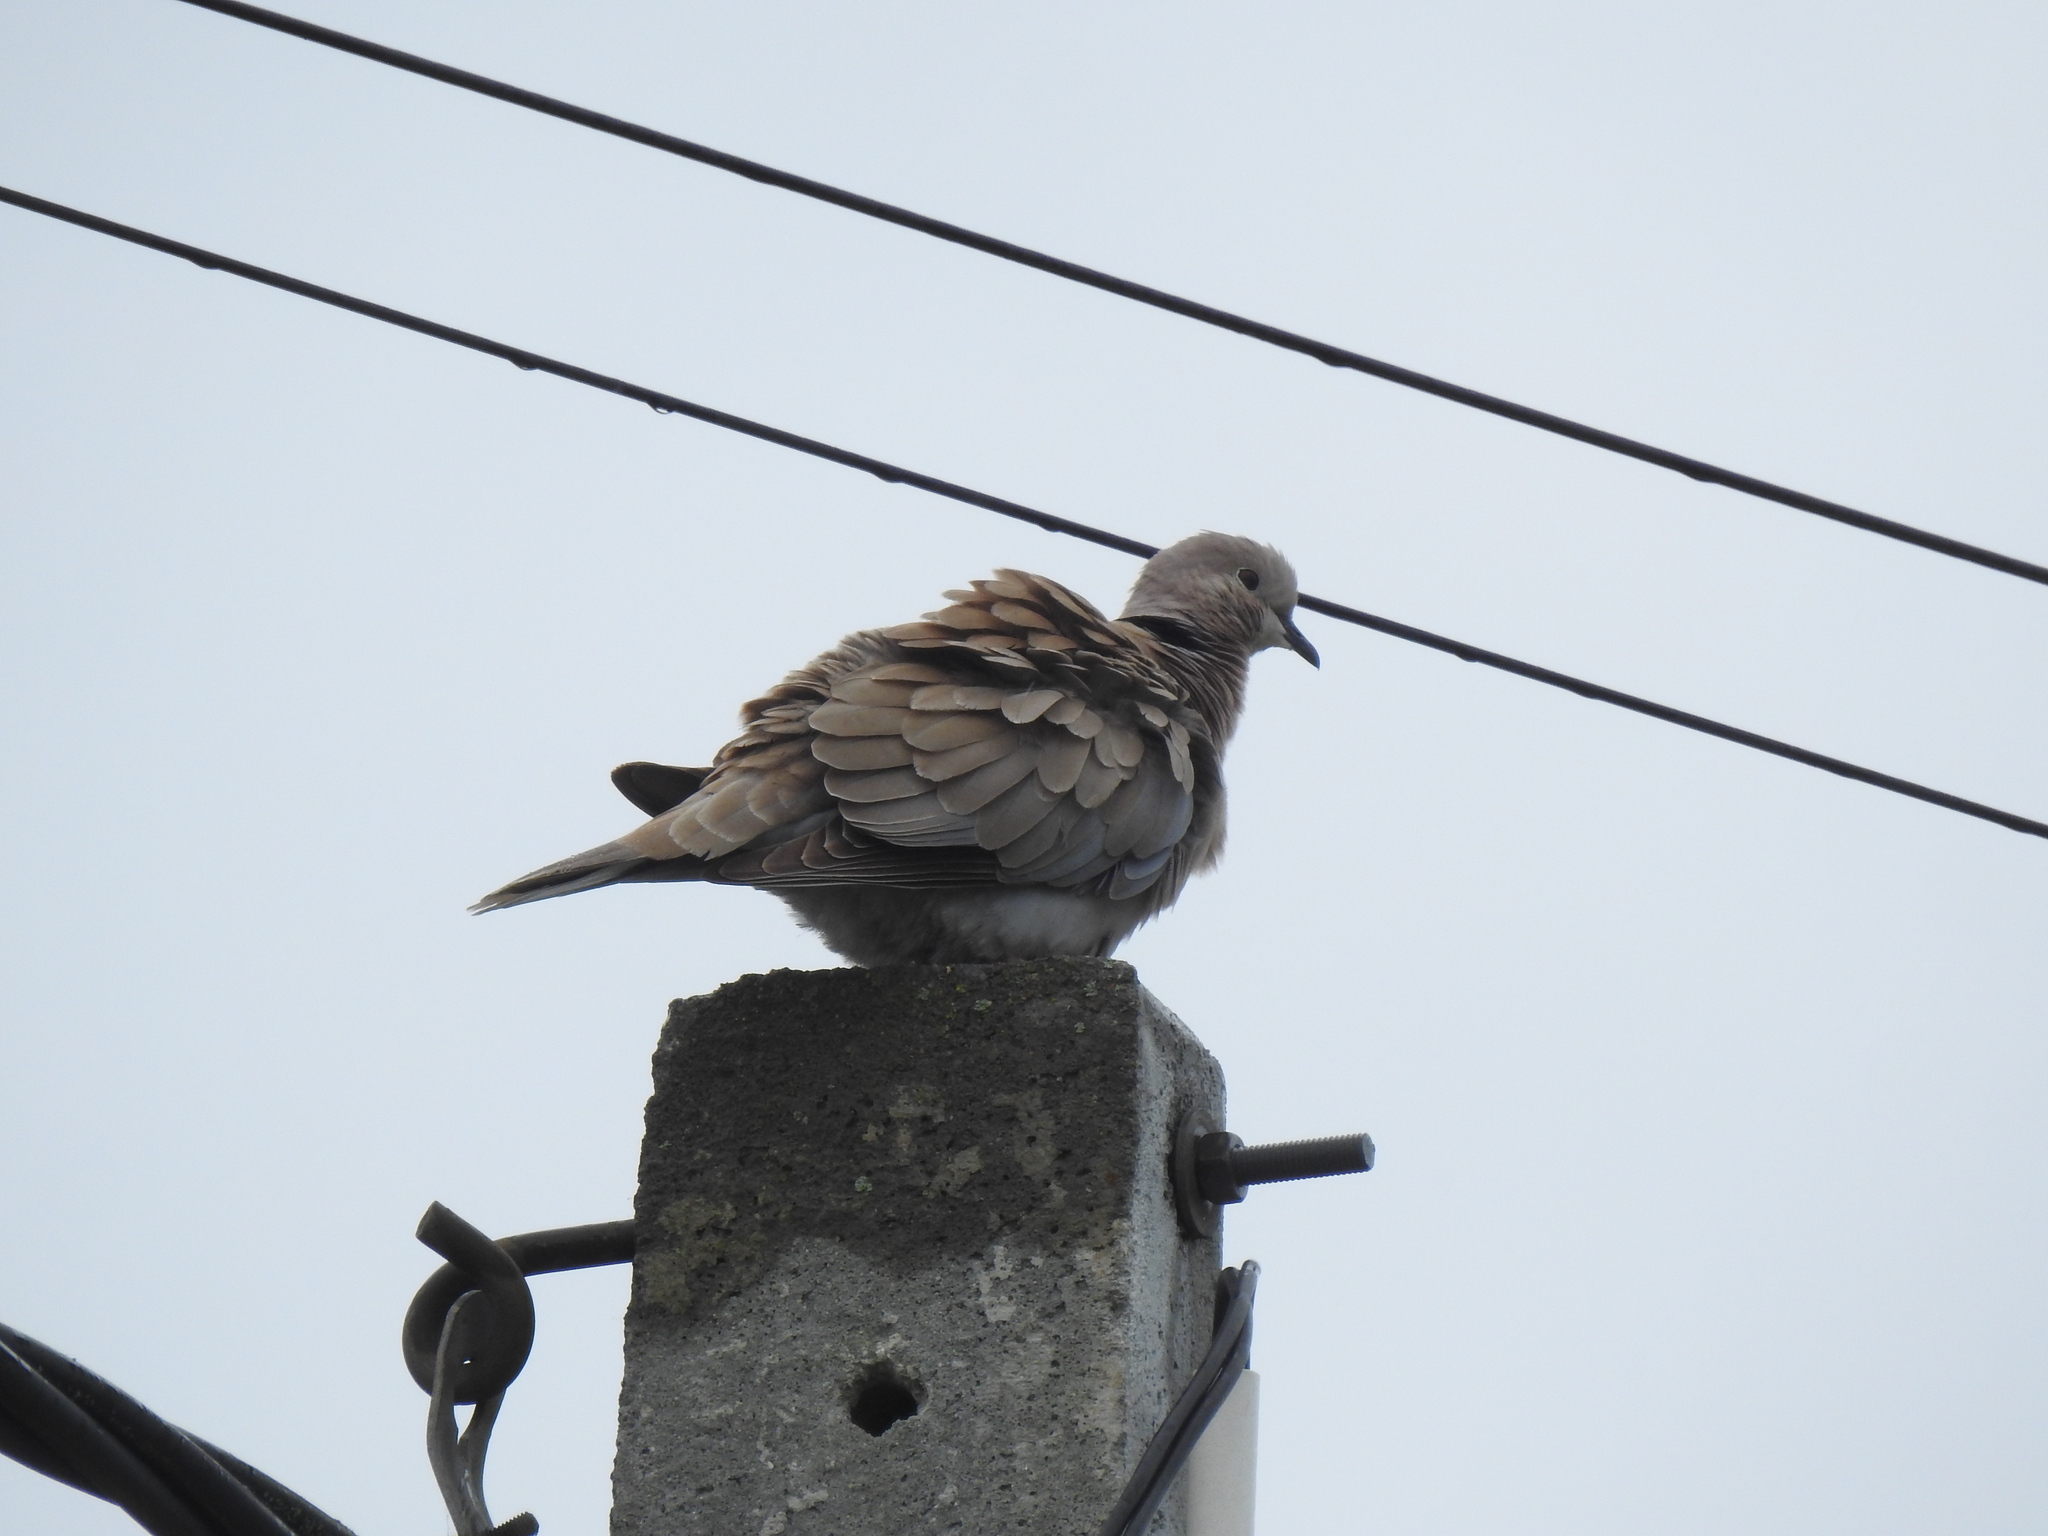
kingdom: Animalia
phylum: Chordata
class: Aves
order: Columbiformes
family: Columbidae
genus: Streptopelia
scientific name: Streptopelia decaocto
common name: Eurasian collared dove
